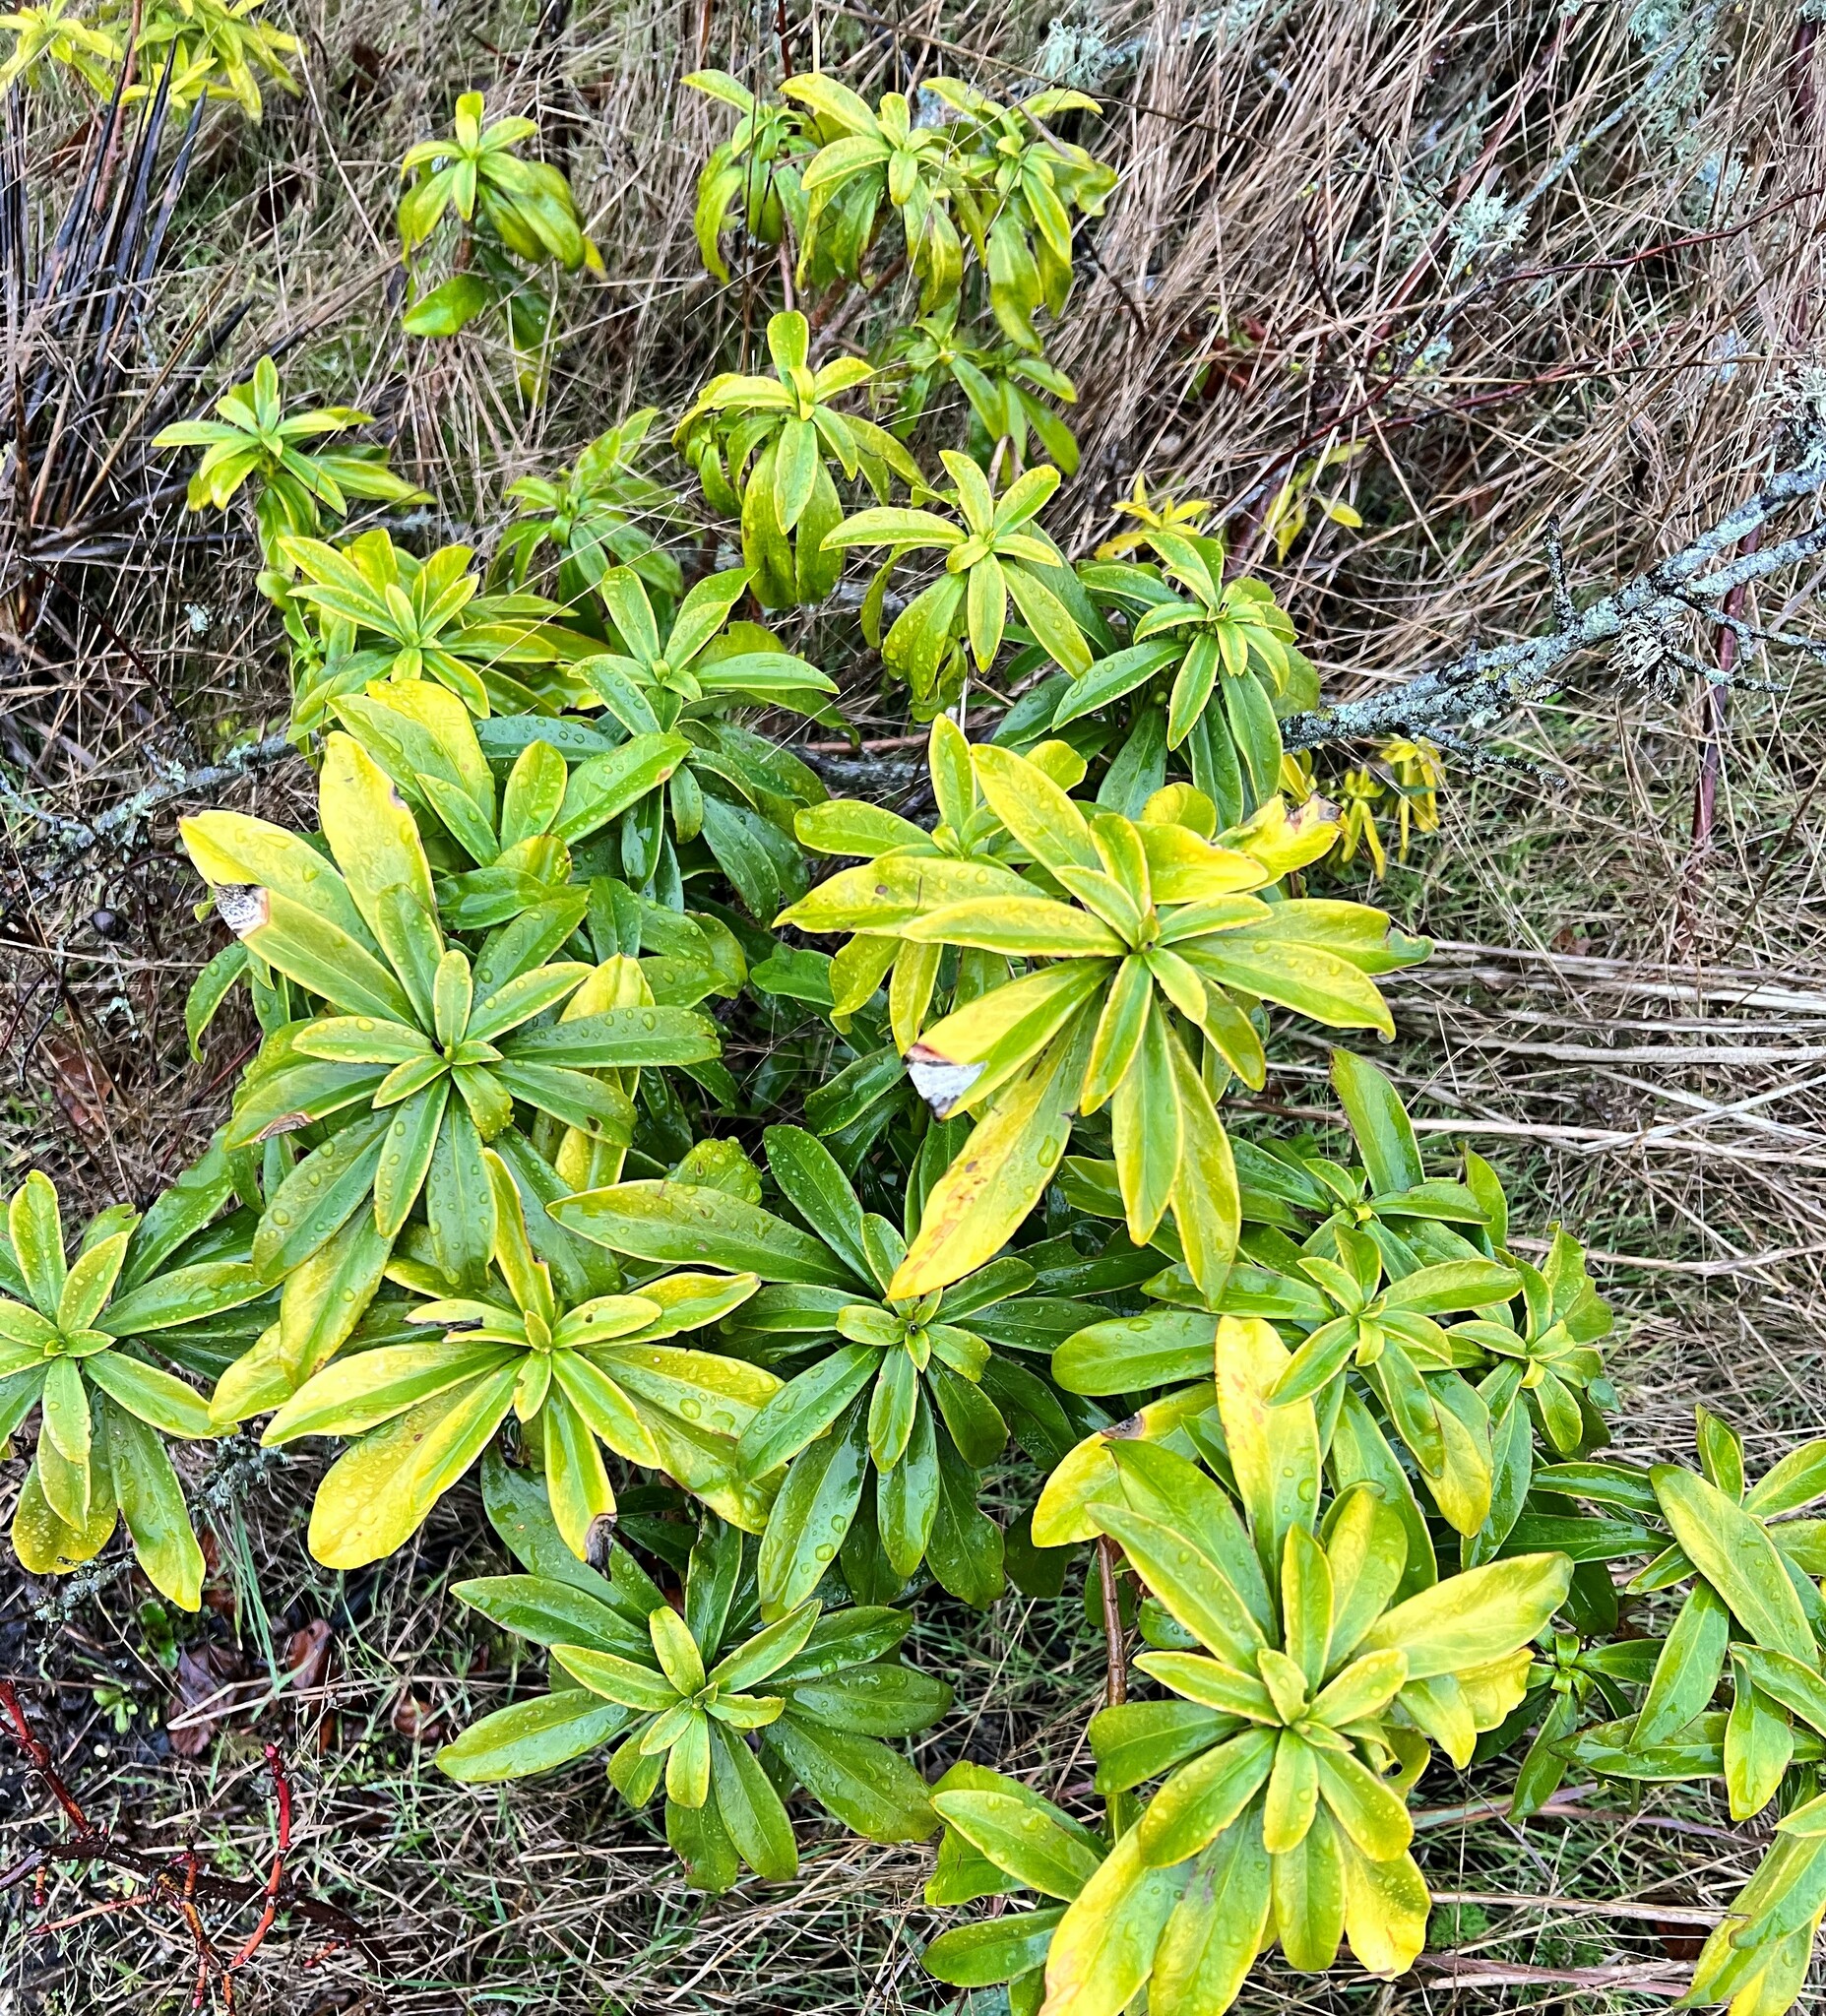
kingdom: Plantae
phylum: Tracheophyta
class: Magnoliopsida
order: Malvales
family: Thymelaeaceae
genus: Daphne
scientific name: Daphne laureola
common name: Spurge-laurel
